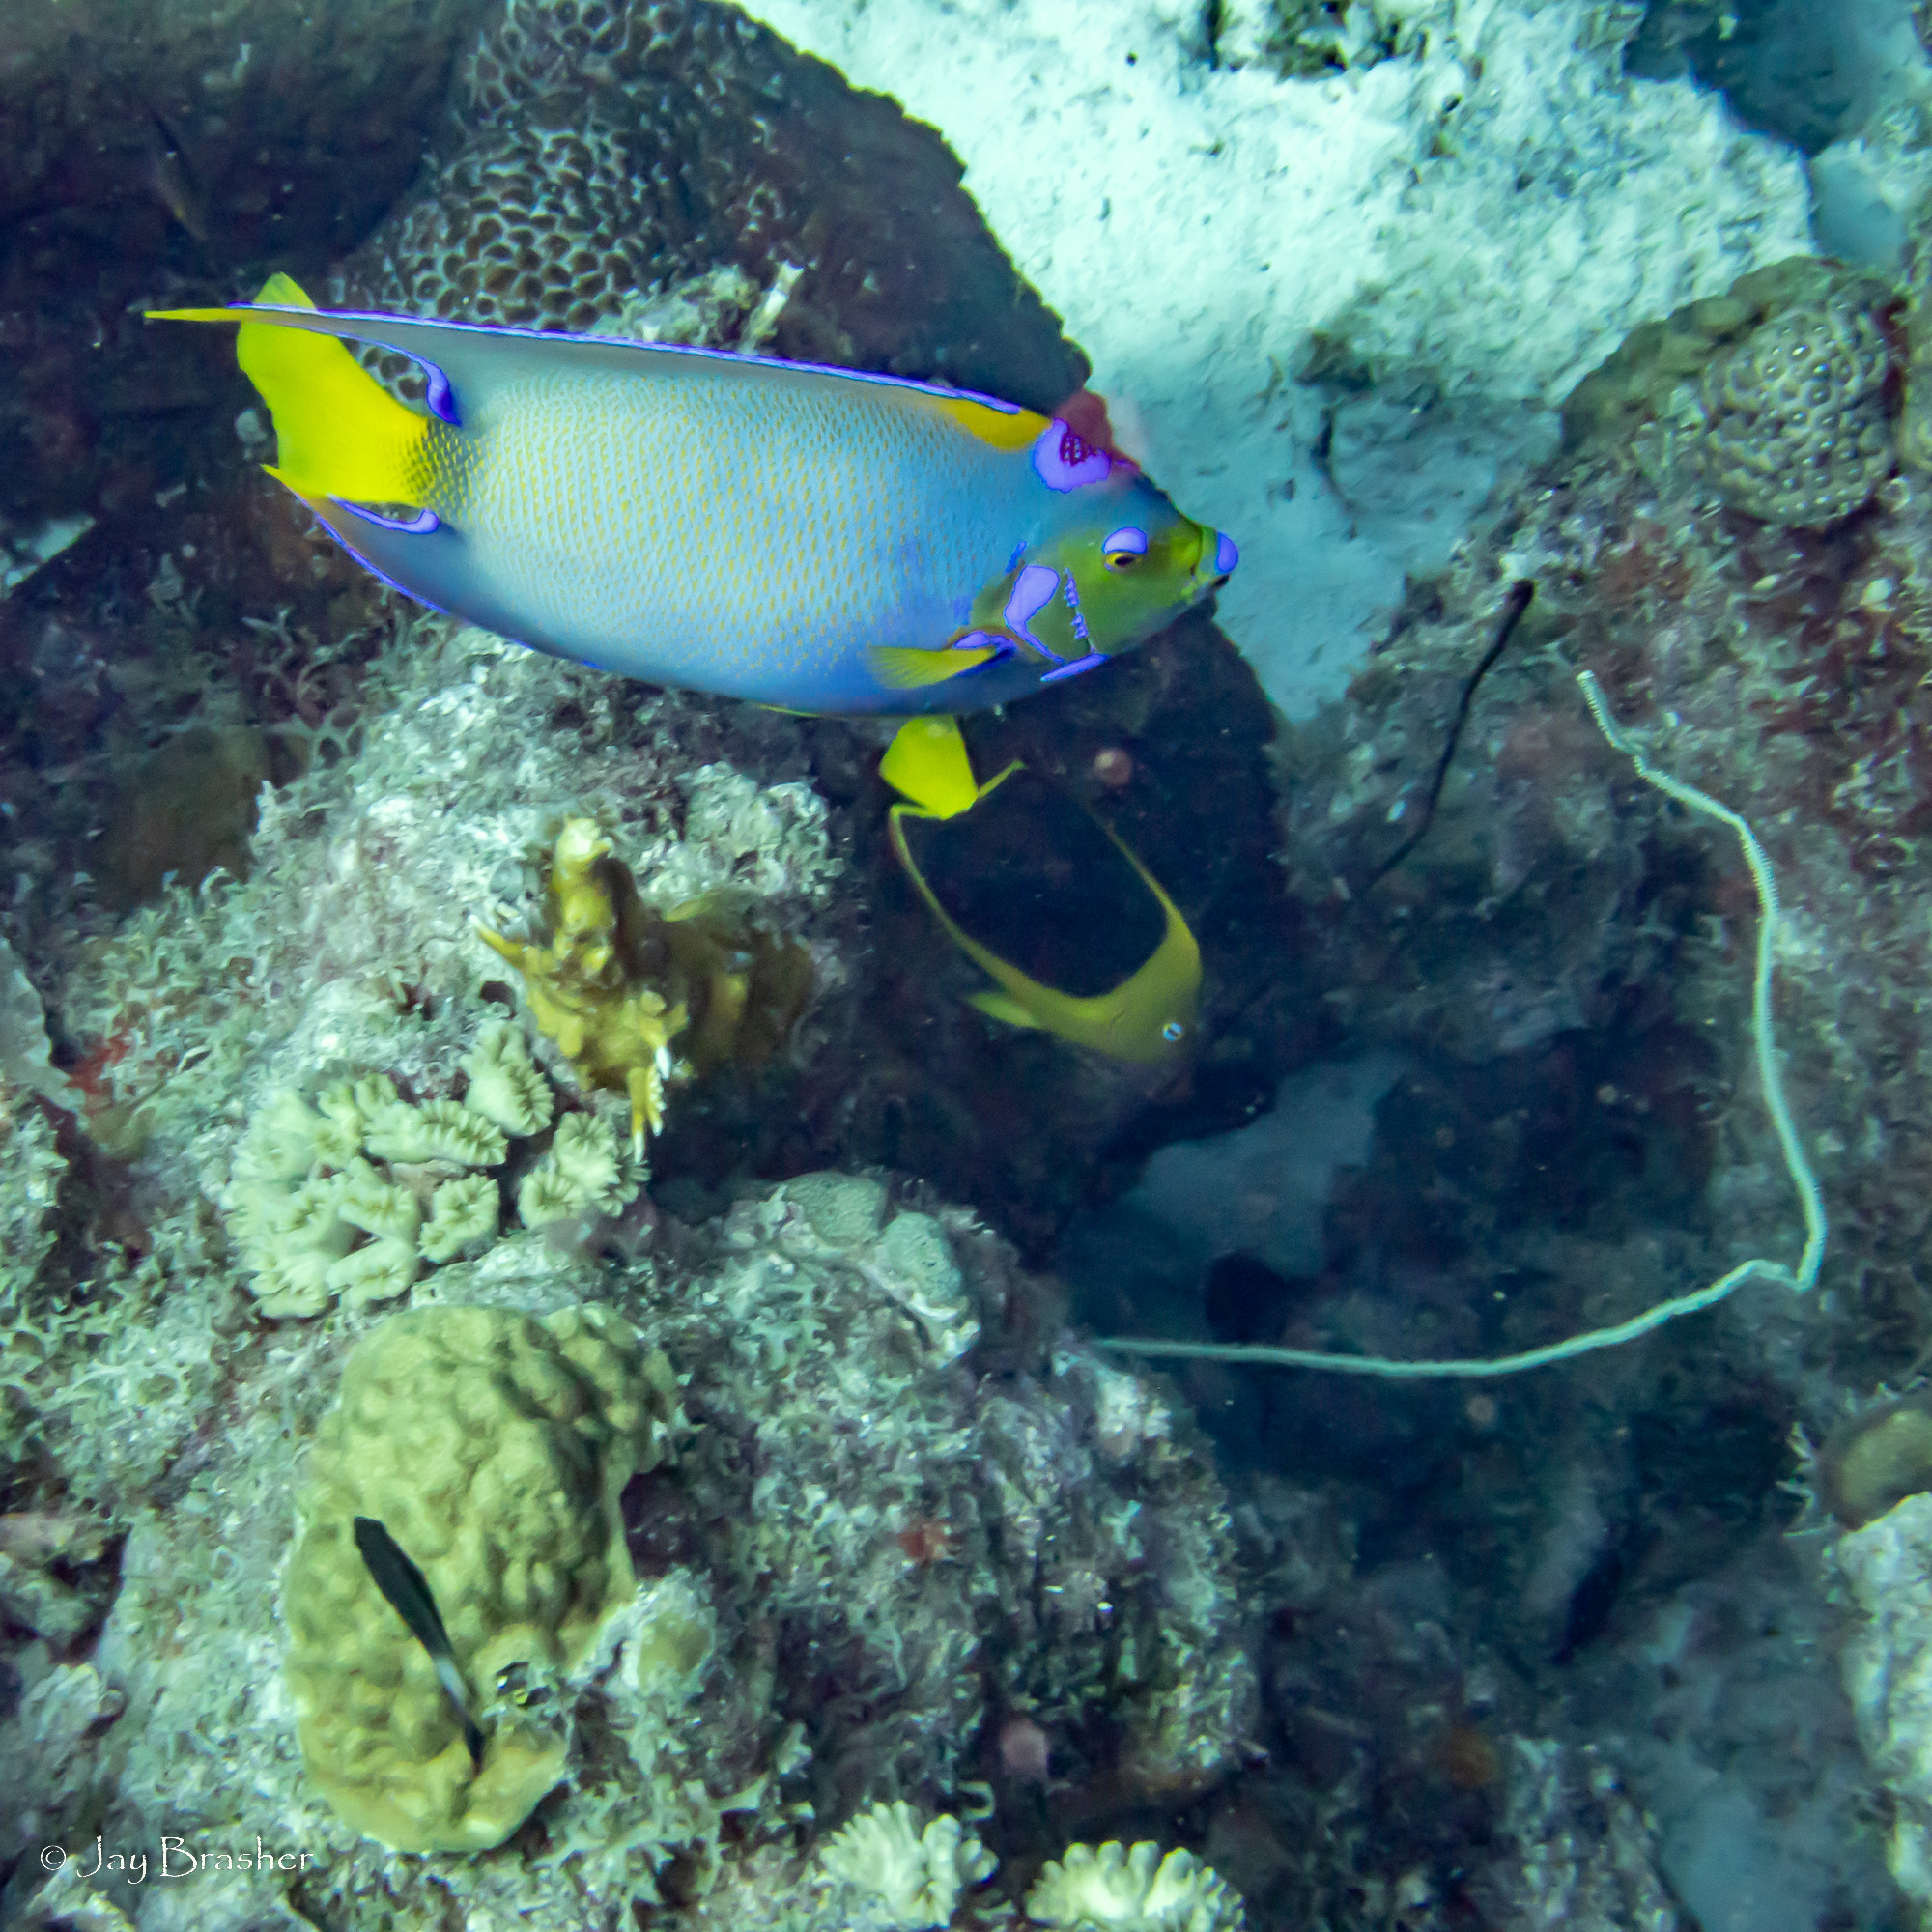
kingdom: Animalia
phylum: Cnidaria
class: Anthozoa
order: Scleractinia
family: Poritidae
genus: Porites
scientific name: Porites astreoides
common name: Mustard hill coral
